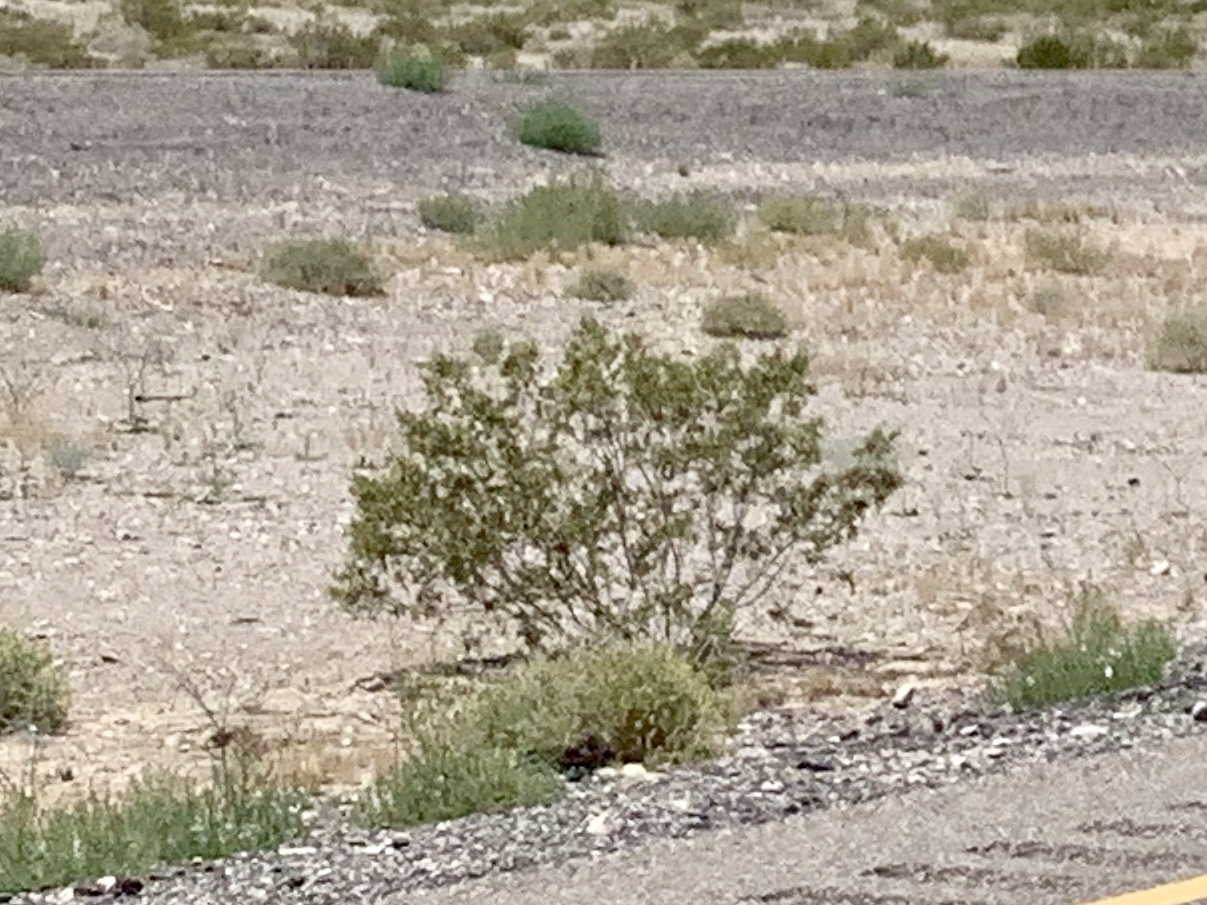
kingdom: Plantae
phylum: Tracheophyta
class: Magnoliopsida
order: Zygophyllales
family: Zygophyllaceae
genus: Larrea
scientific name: Larrea tridentata
